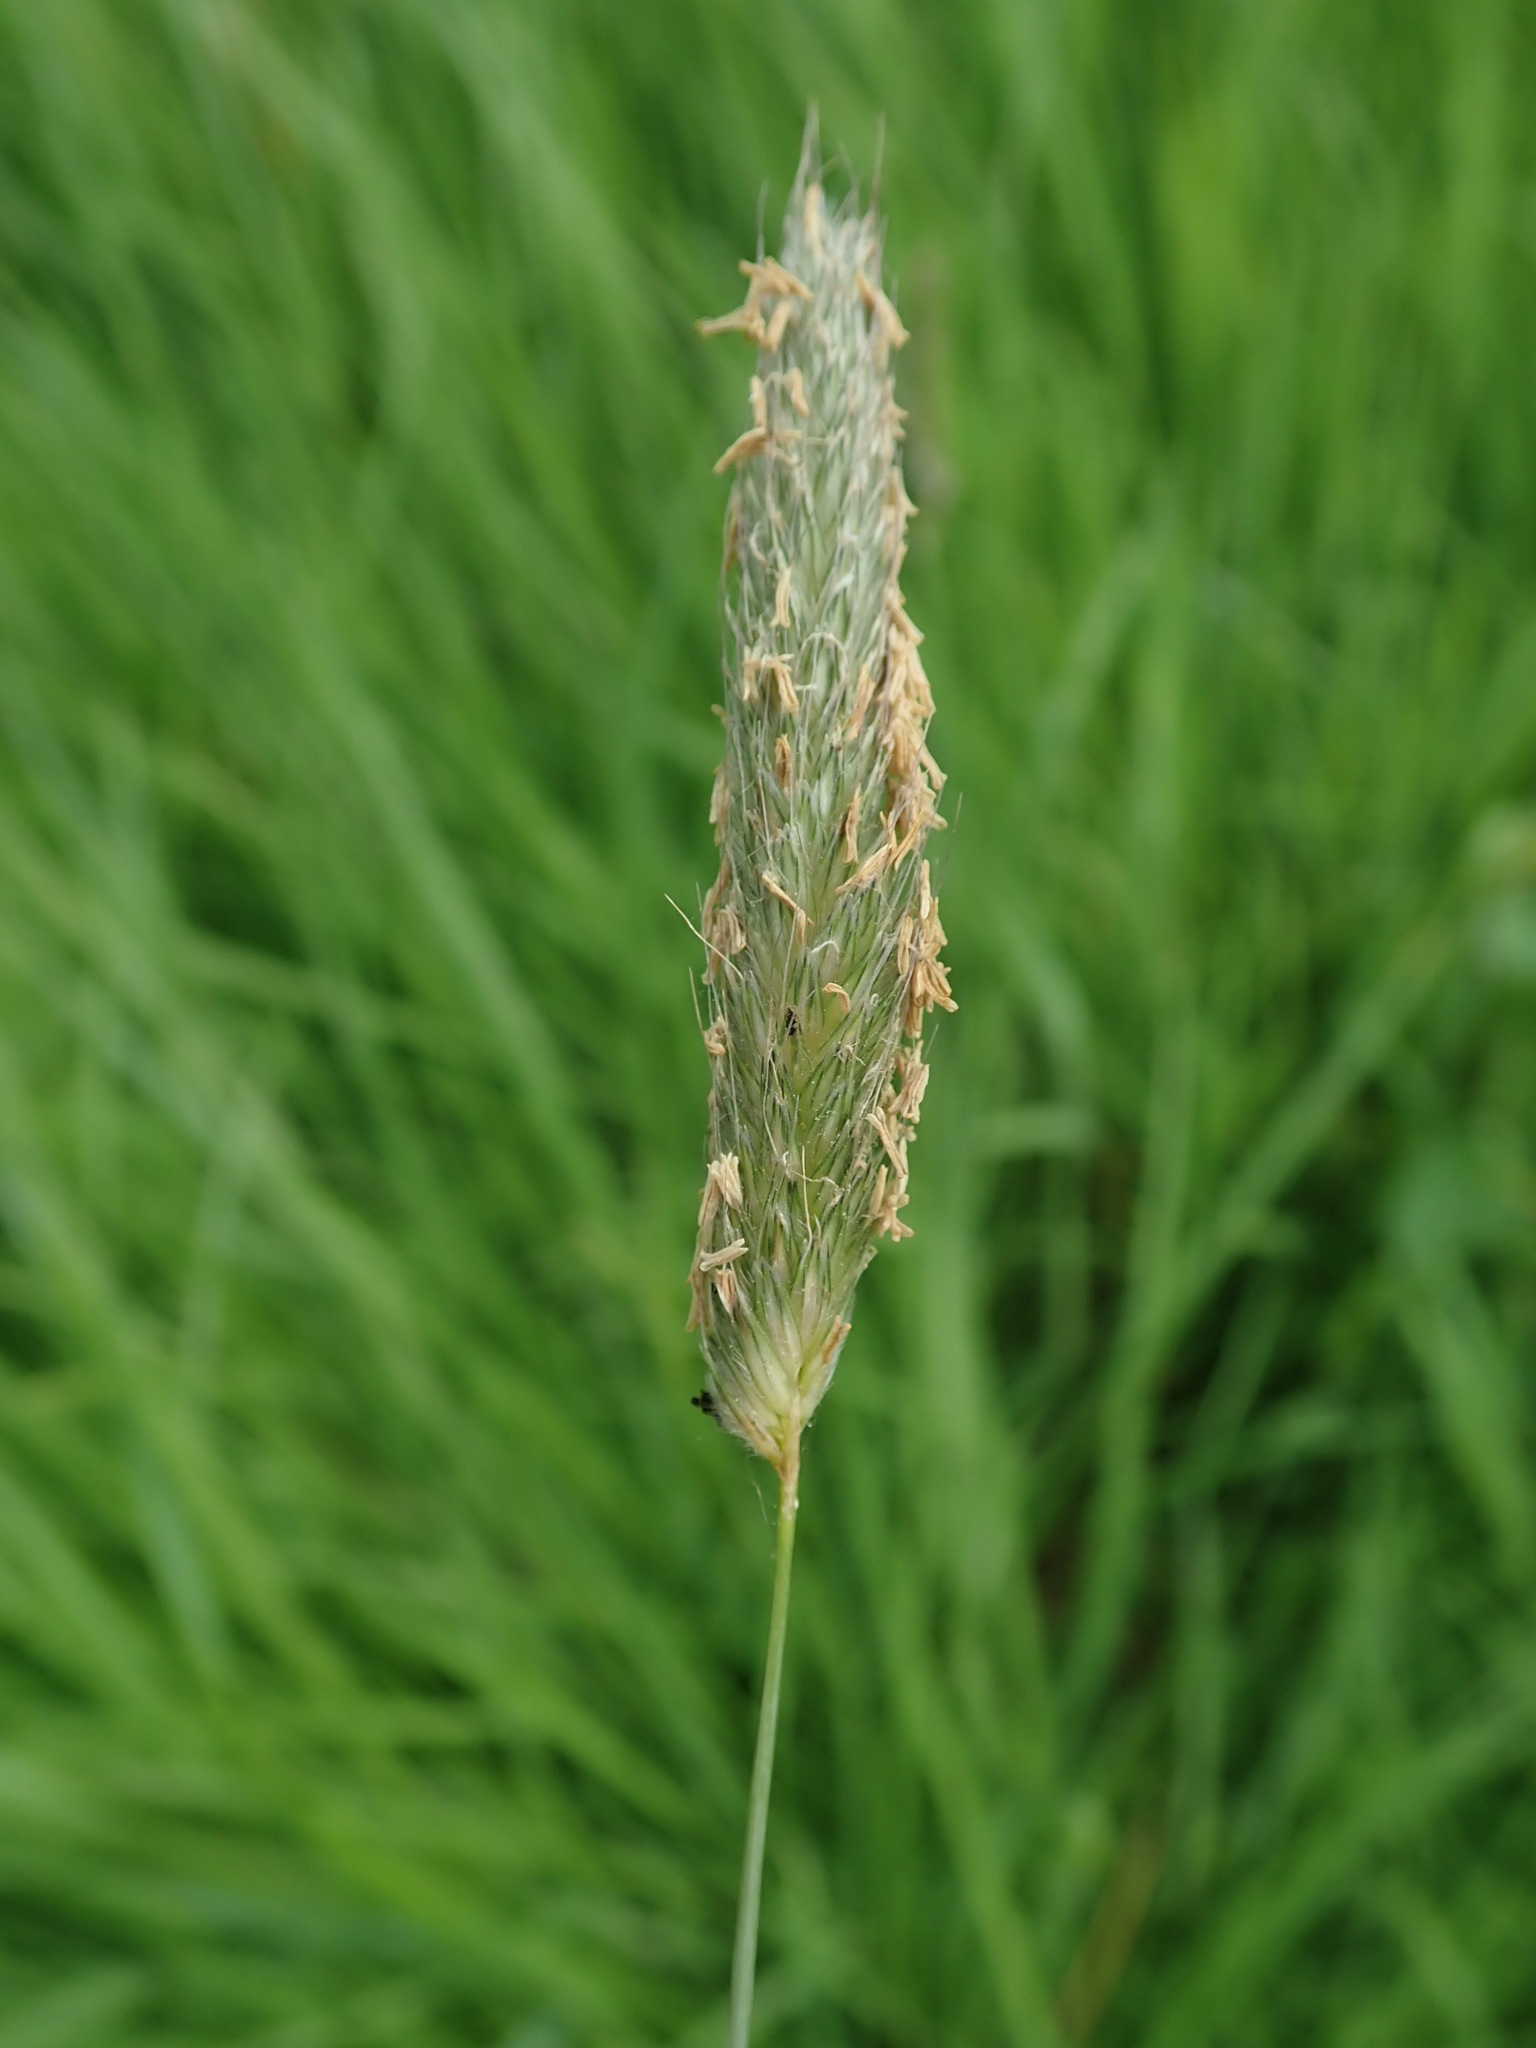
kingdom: Plantae
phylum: Tracheophyta
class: Liliopsida
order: Poales
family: Poaceae
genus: Alopecurus
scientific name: Alopecurus pratensis
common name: Meadow foxtail
